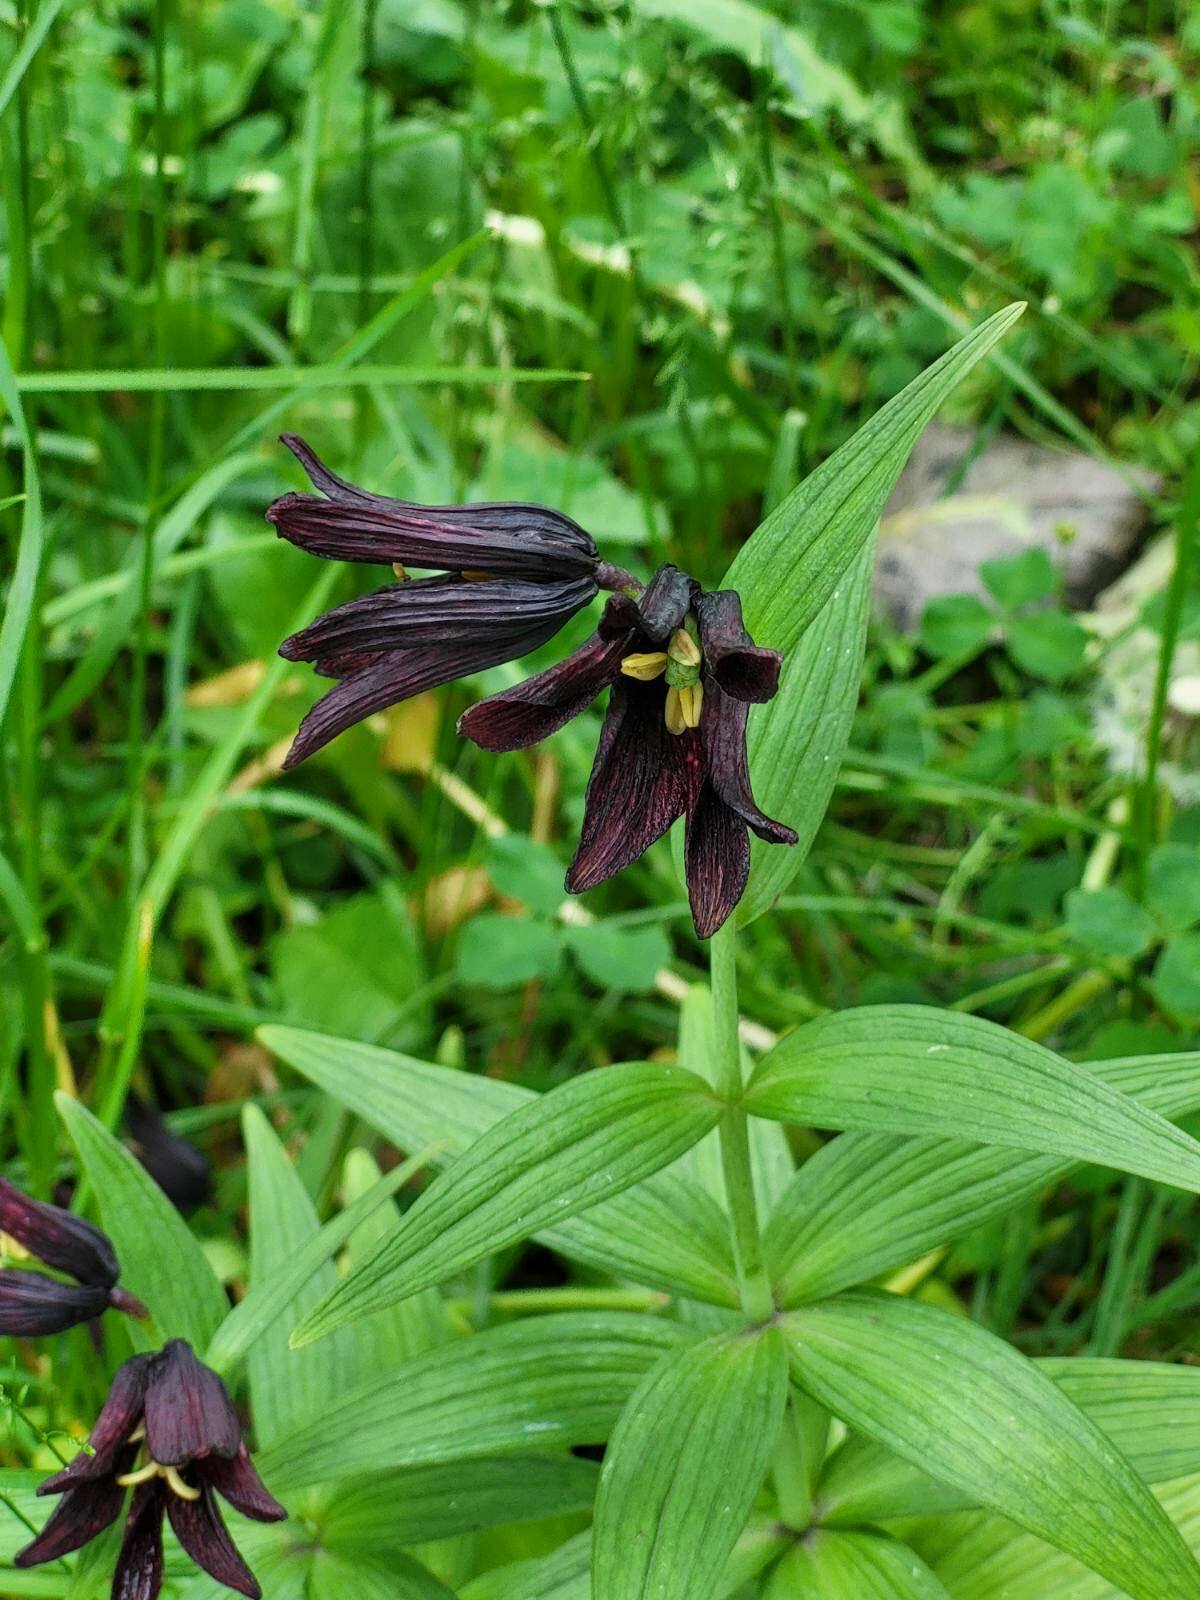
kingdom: Plantae
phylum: Tracheophyta
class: Liliopsida
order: Liliales
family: Liliaceae
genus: Fritillaria
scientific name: Fritillaria camschatcensis
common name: Kamchatka fritillary
